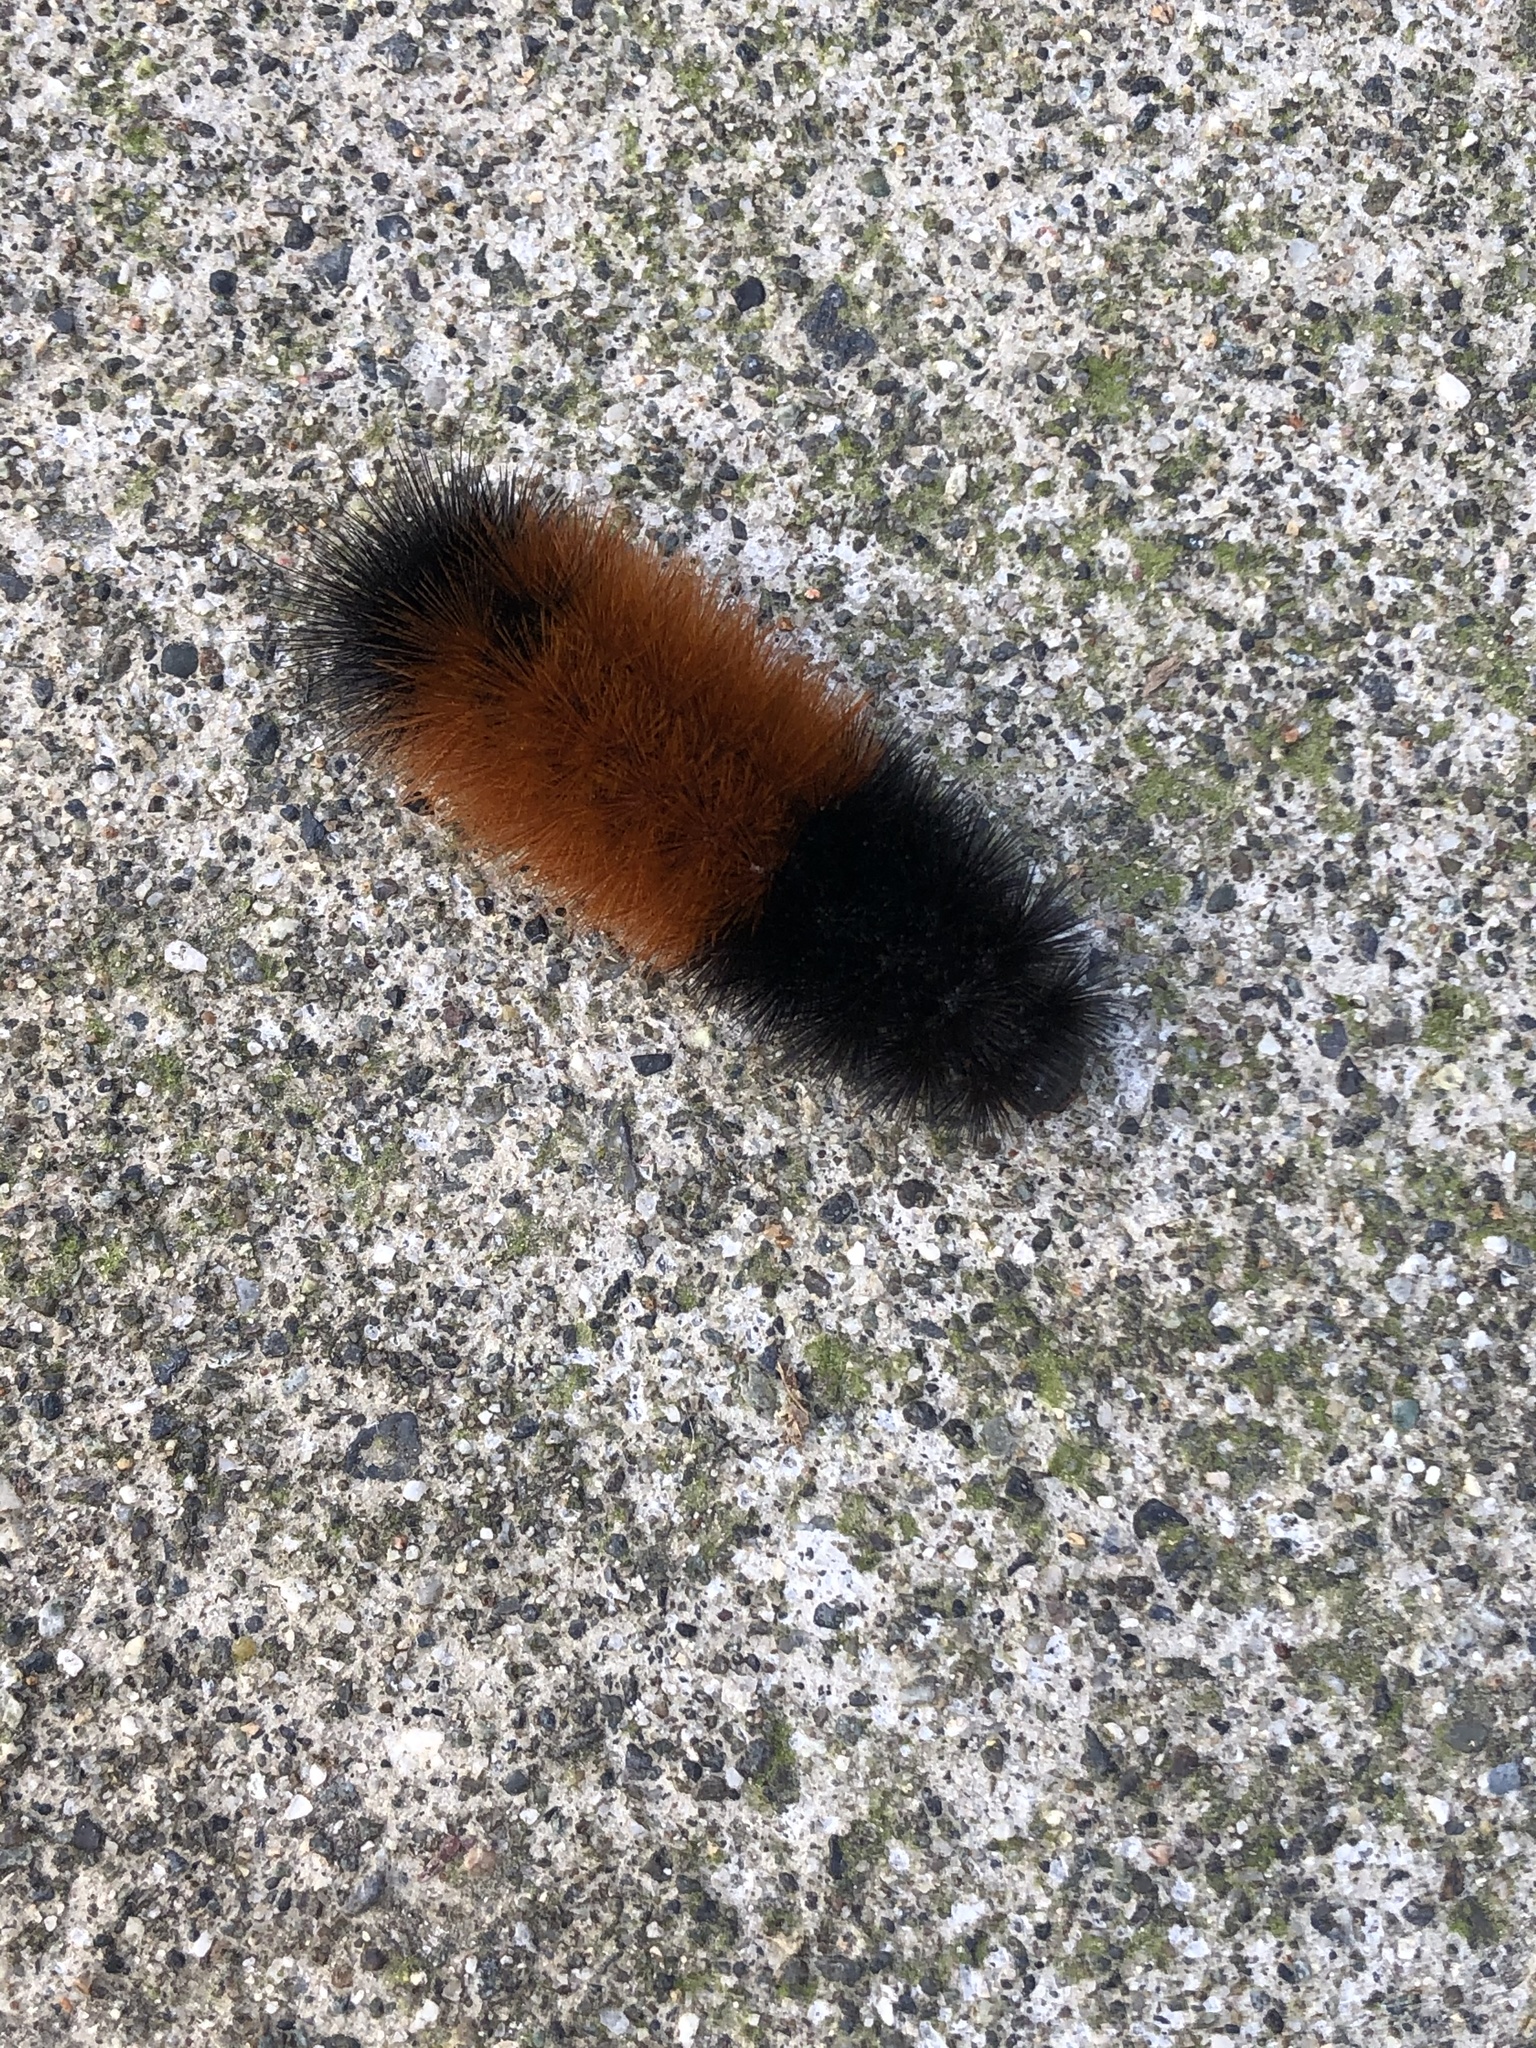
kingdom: Animalia
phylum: Arthropoda
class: Insecta
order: Lepidoptera
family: Erebidae
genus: Pyrrharctia
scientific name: Pyrrharctia isabella
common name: Isabella tiger moth
